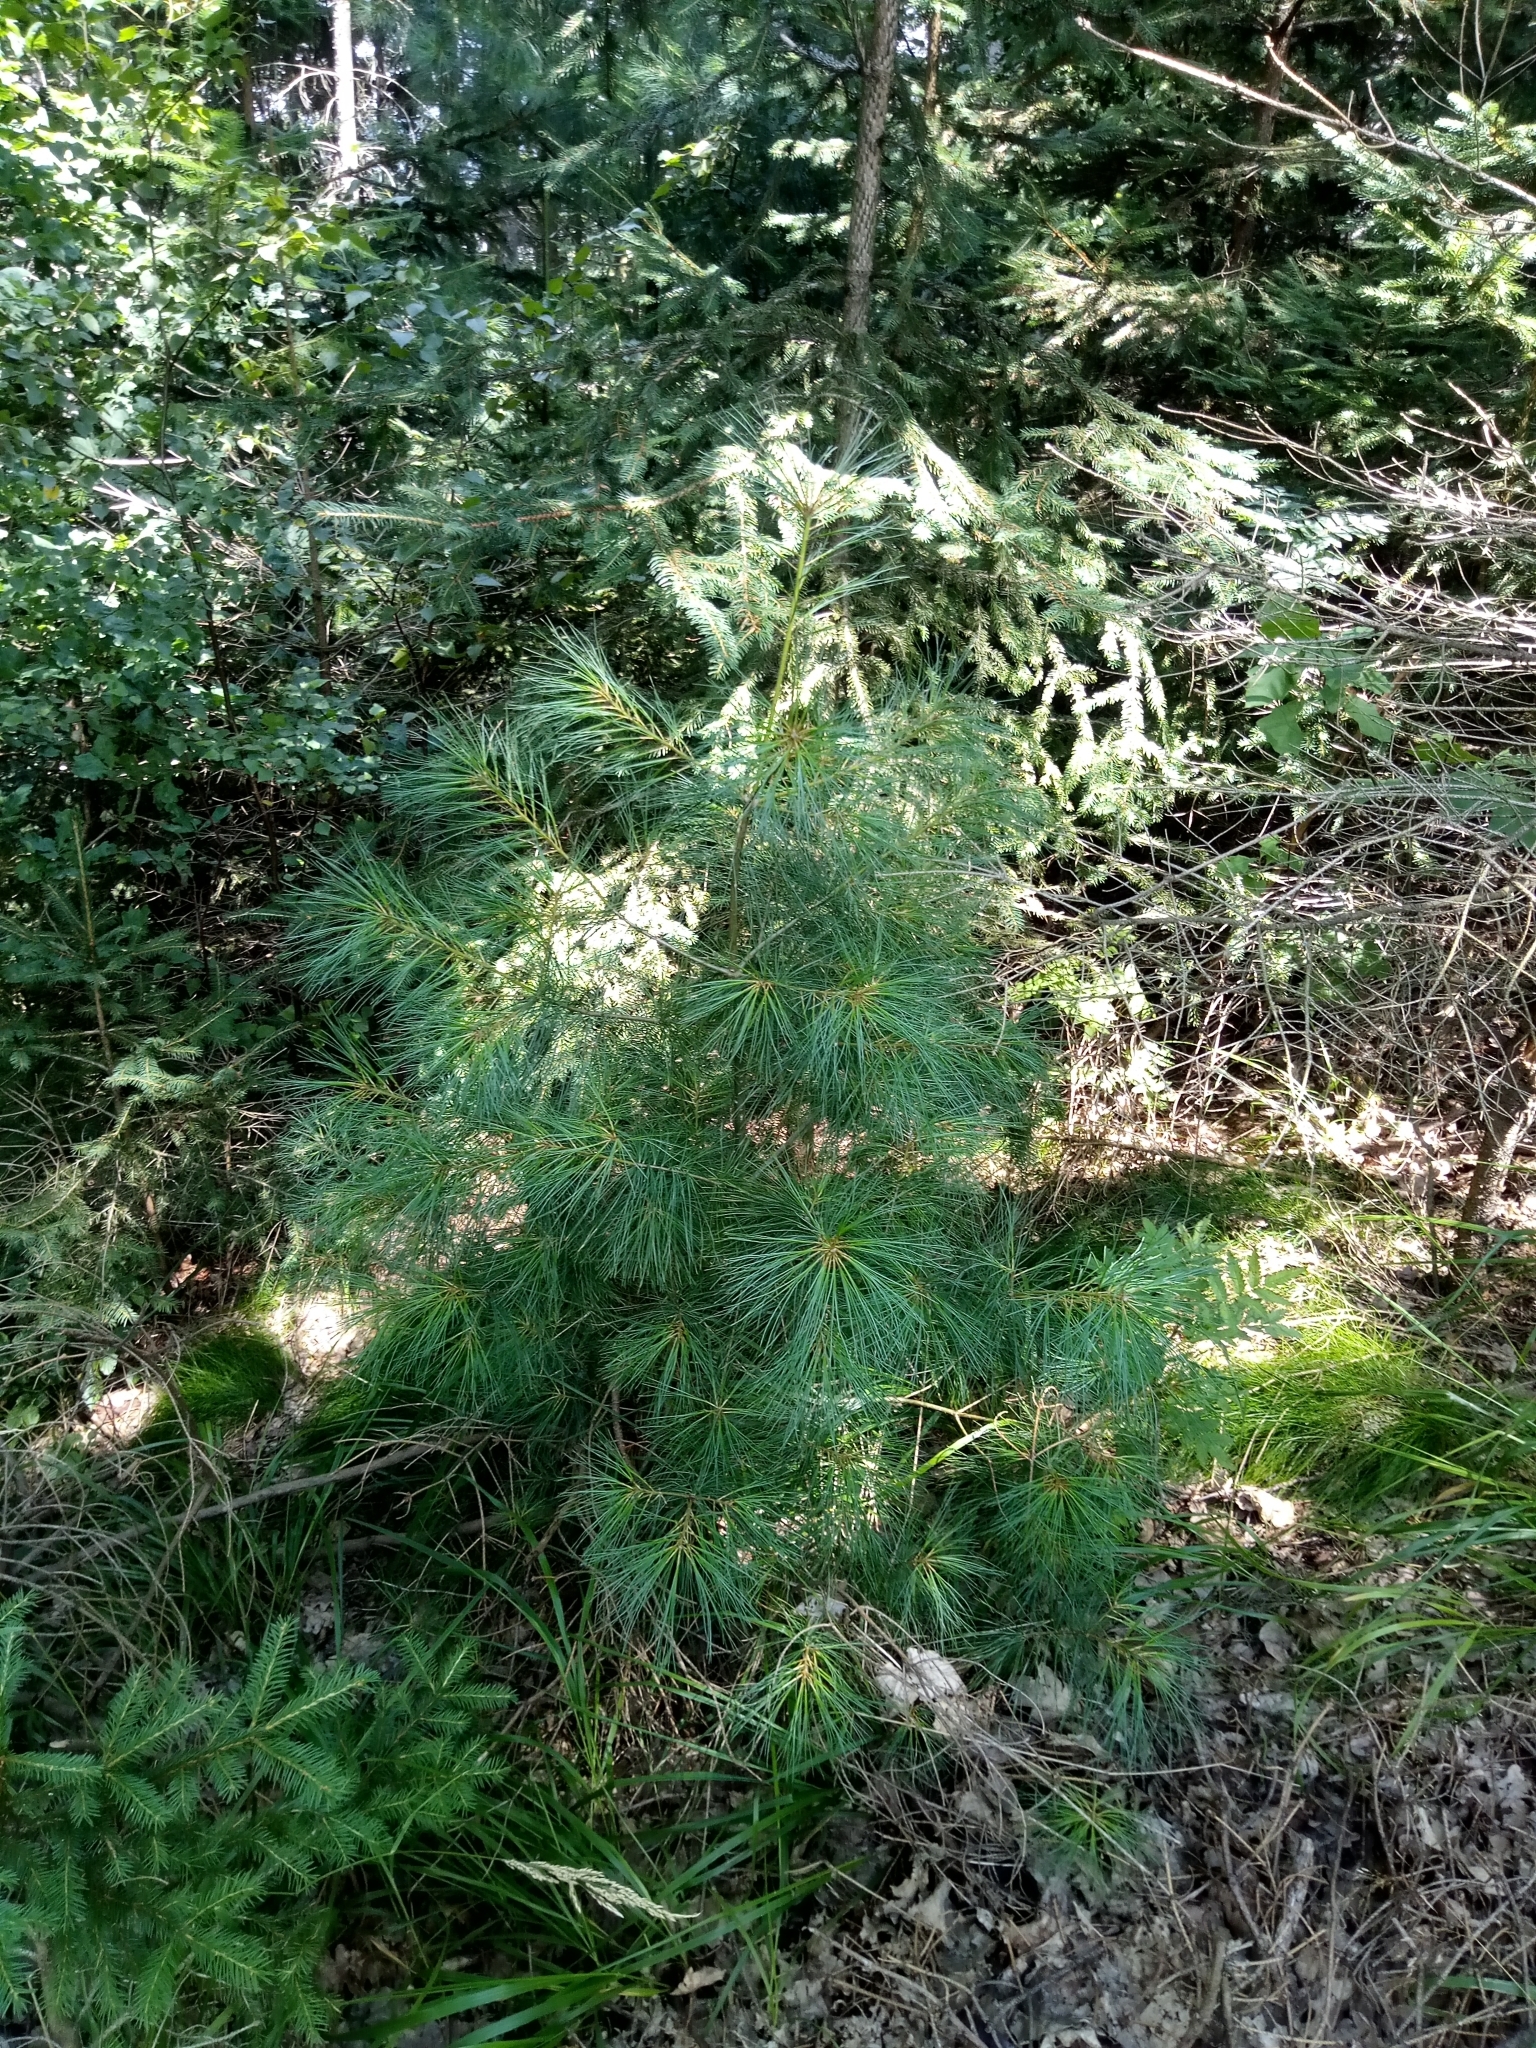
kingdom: Plantae
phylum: Tracheophyta
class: Pinopsida
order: Pinales
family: Pinaceae
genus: Pinus
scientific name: Pinus strobus
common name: Weymouth pine
